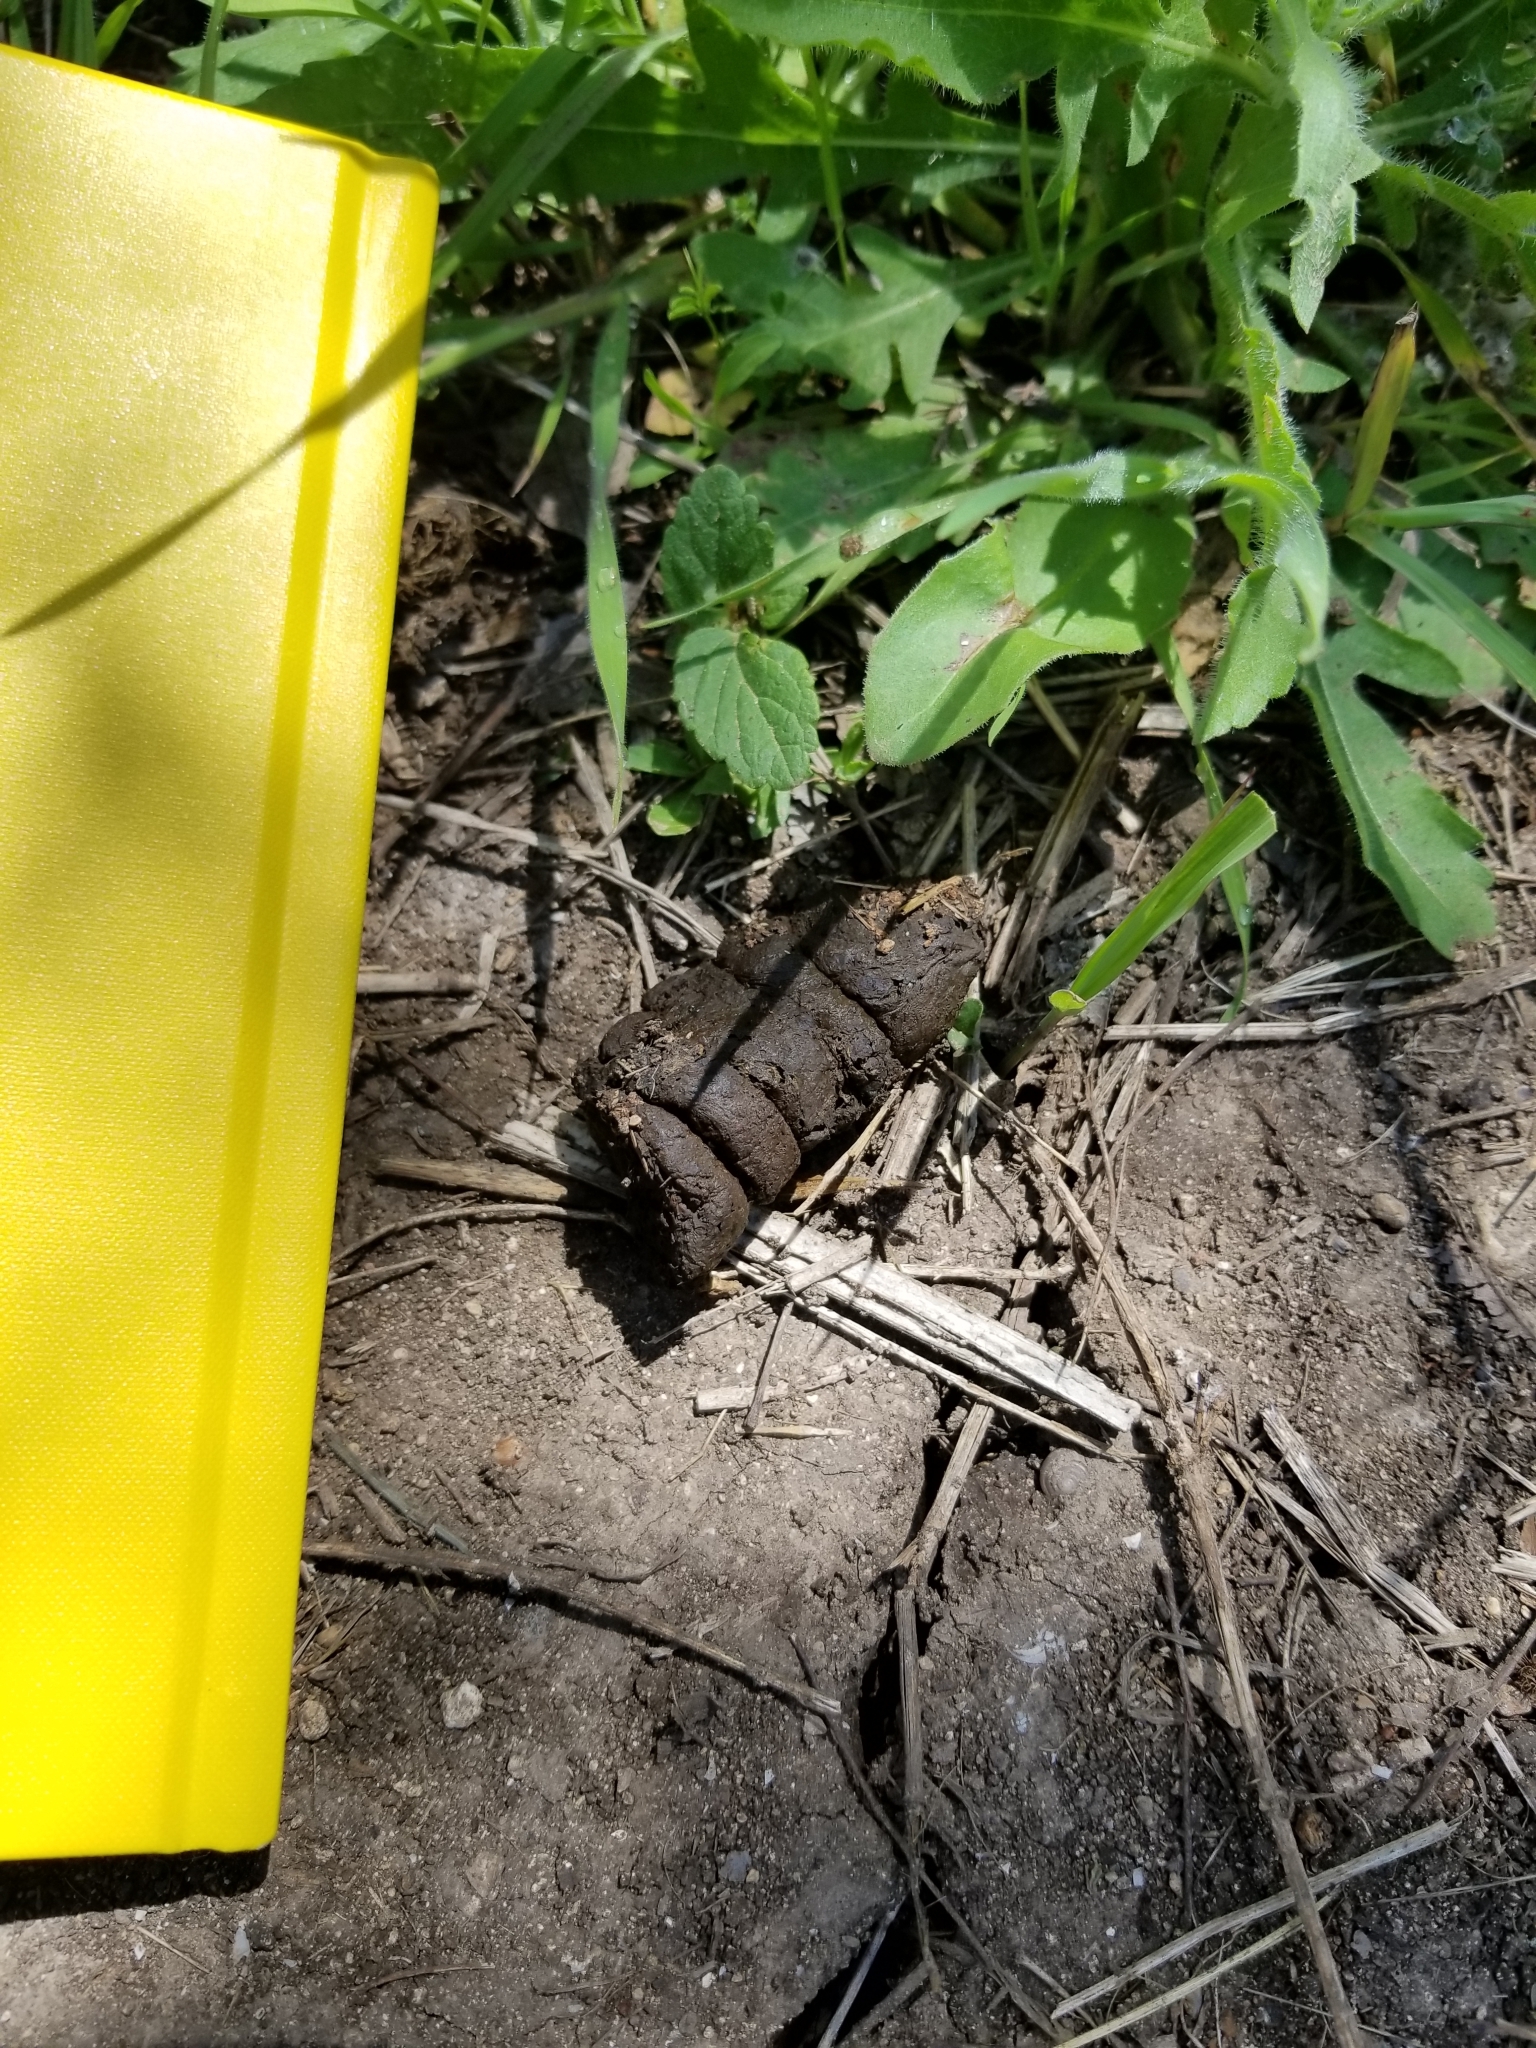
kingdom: Animalia
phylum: Chordata
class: Mammalia
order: Artiodactyla
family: Suidae
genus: Sus
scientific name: Sus scrofa
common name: Wild boar
